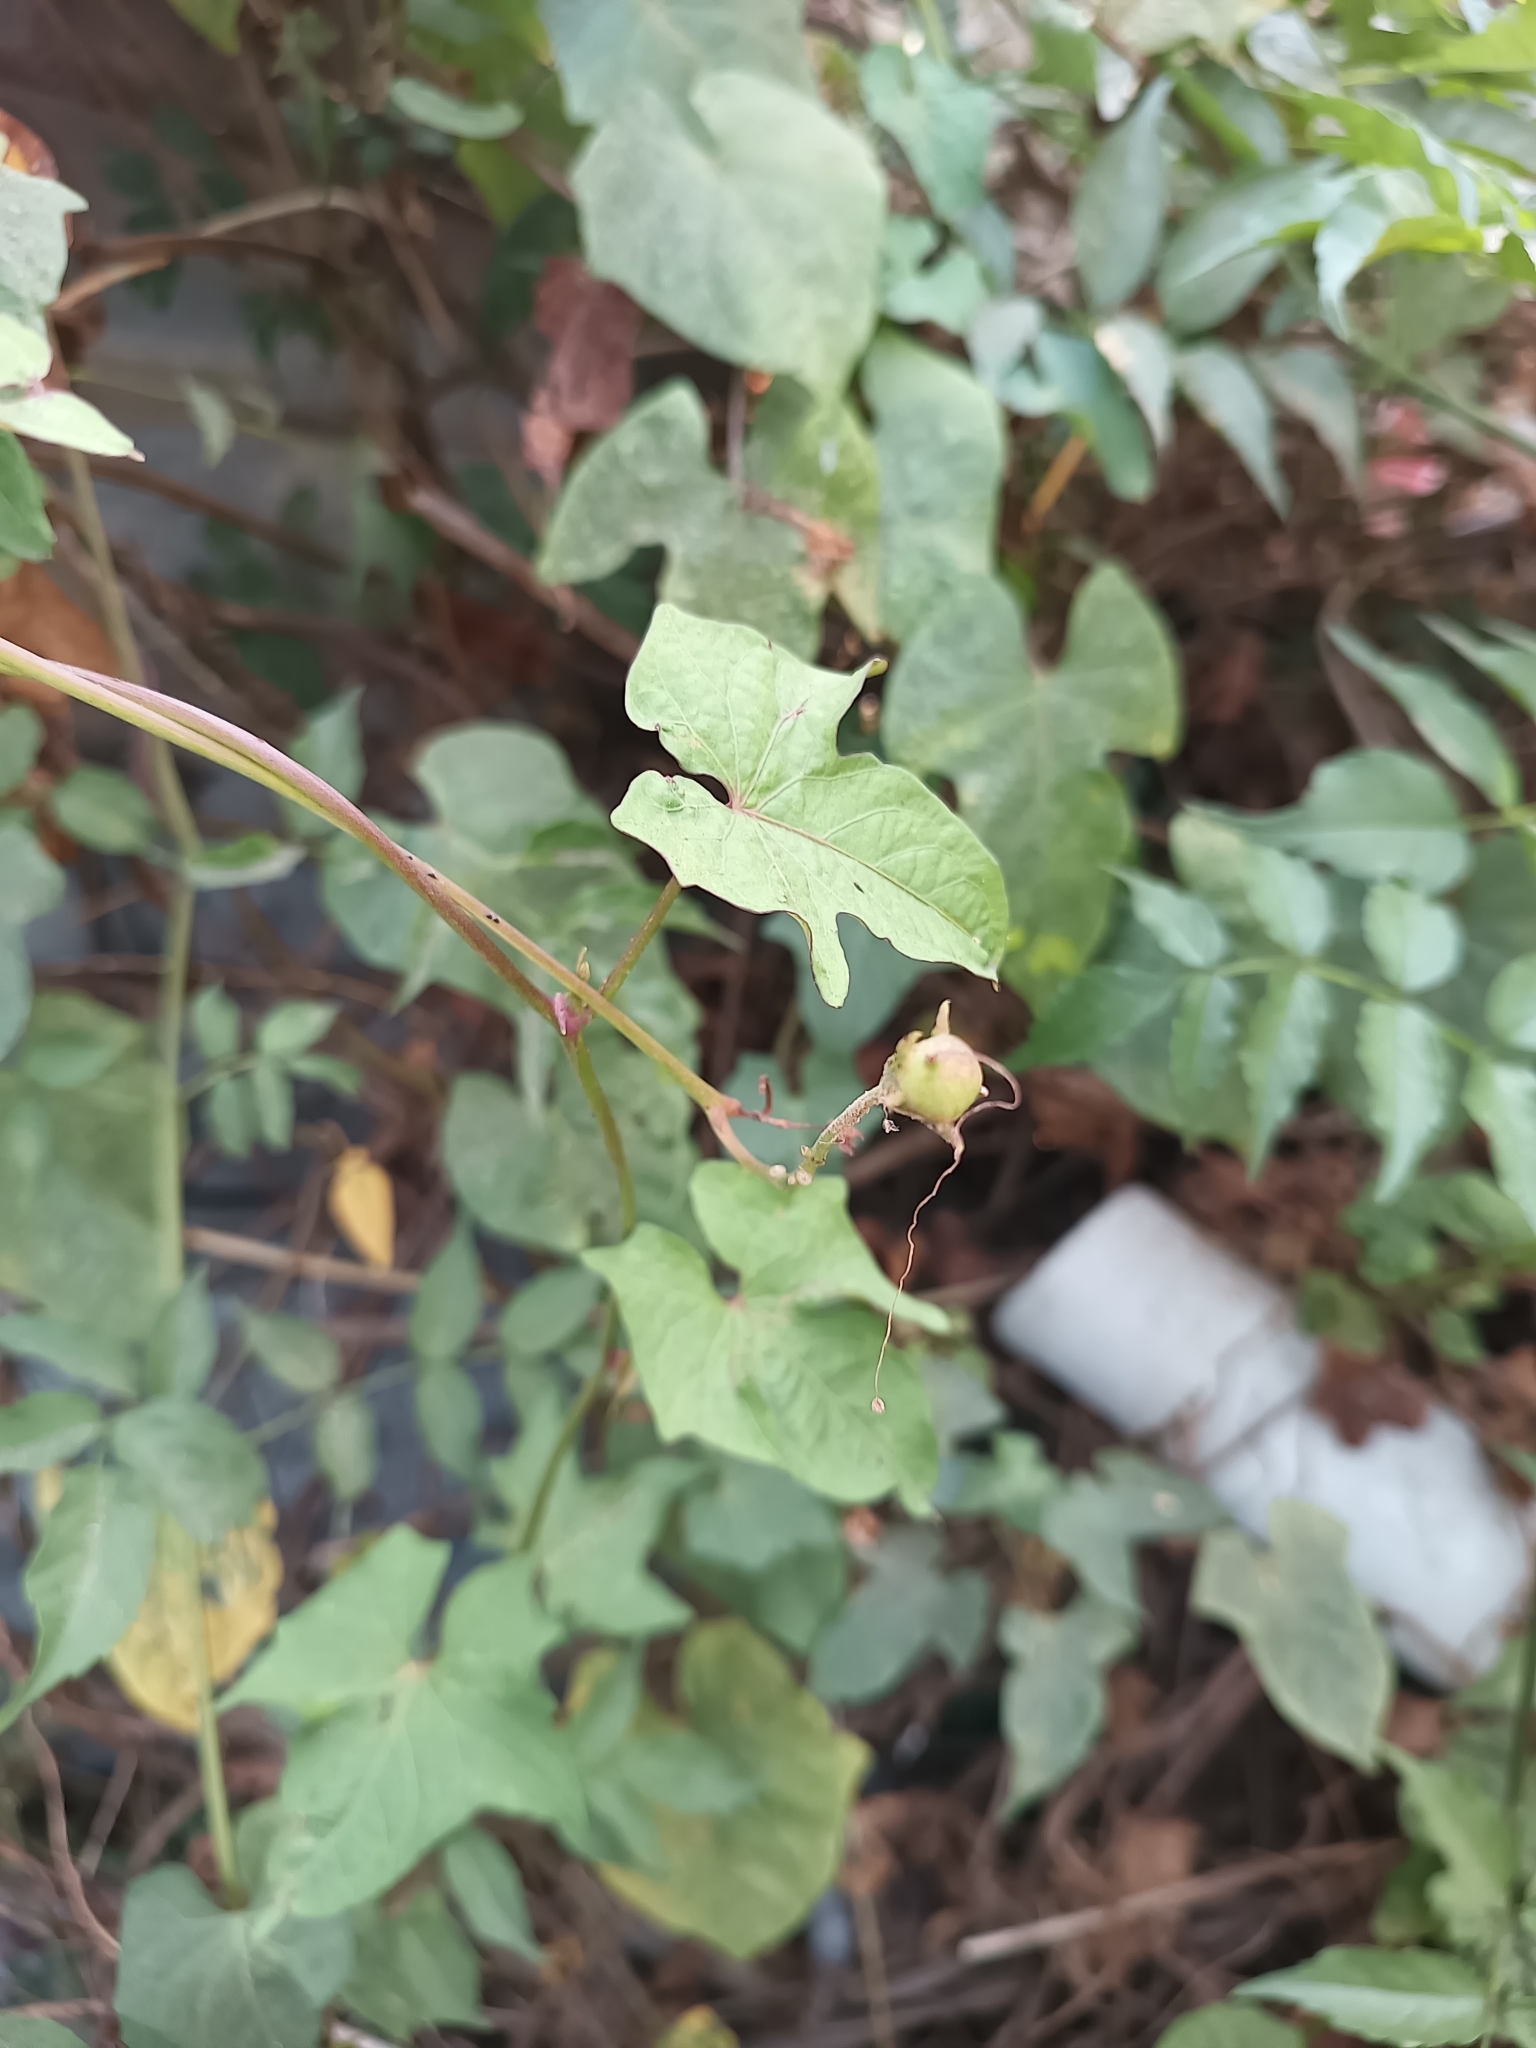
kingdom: Plantae
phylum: Tracheophyta
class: Magnoliopsida
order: Solanales
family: Convolvulaceae
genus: Ipomoea
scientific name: Ipomoea neei
